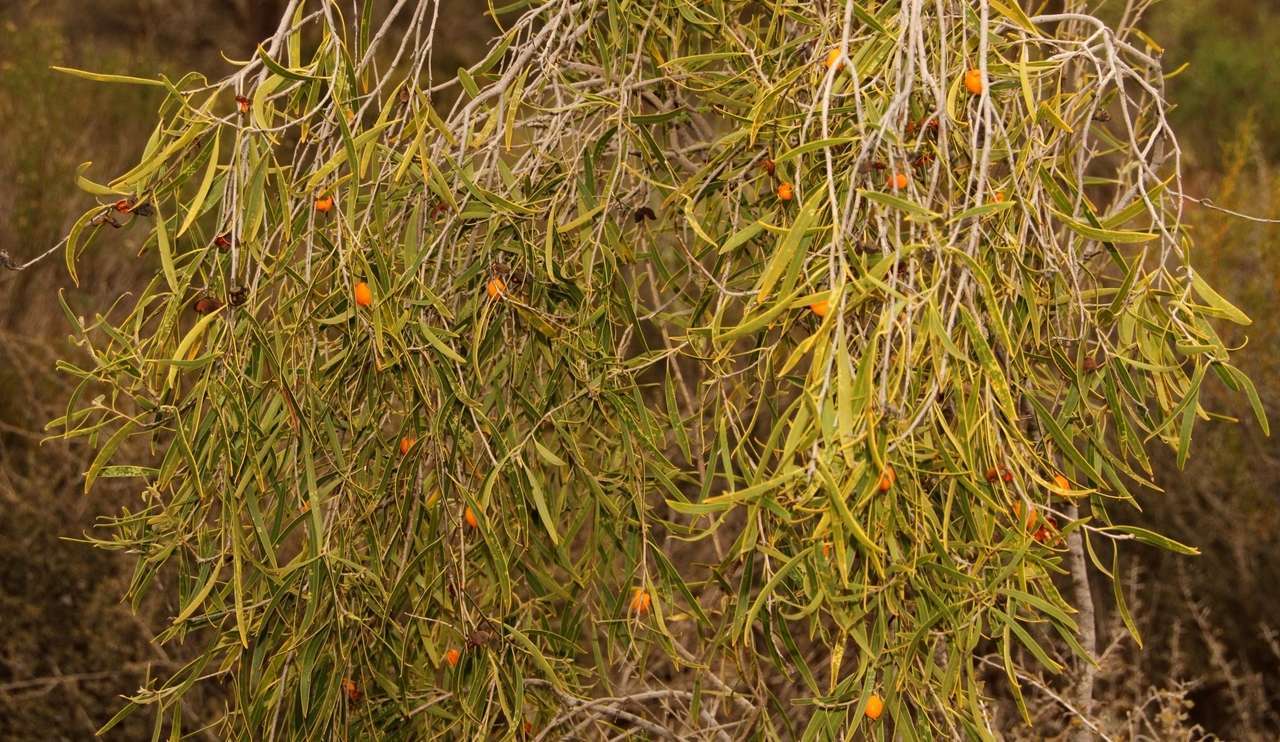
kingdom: Plantae
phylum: Tracheophyta
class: Magnoliopsida
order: Apiales
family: Pittosporaceae
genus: Pittosporum
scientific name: Pittosporum angustifolium
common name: Weeping pittosporum
